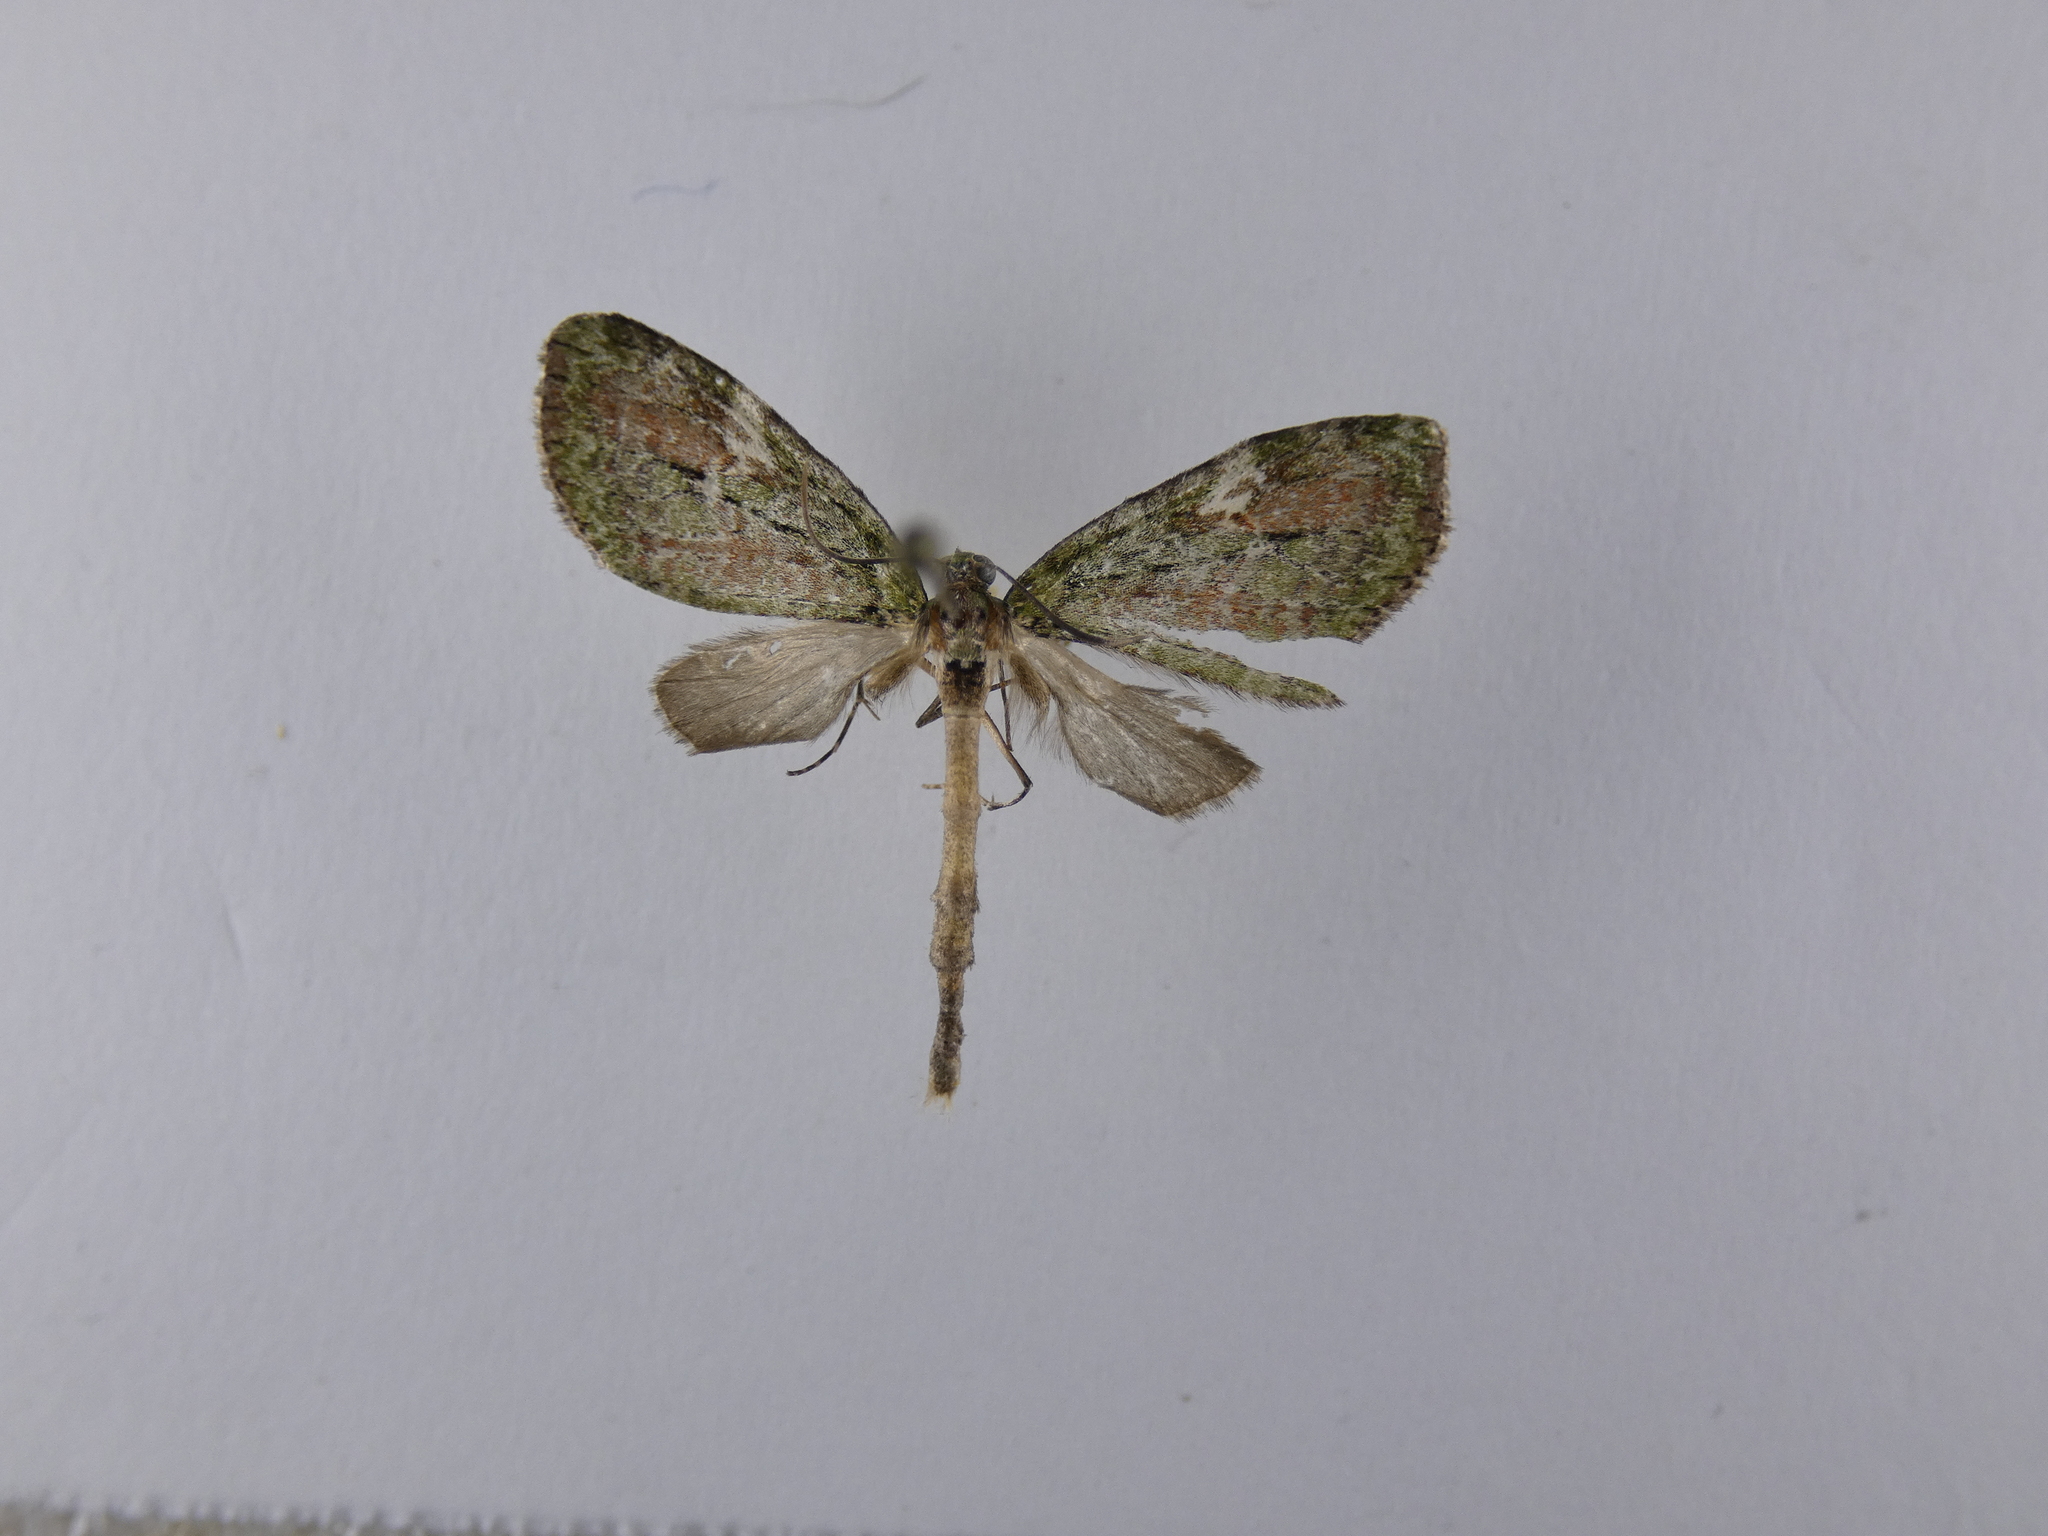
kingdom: Animalia
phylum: Arthropoda
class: Insecta
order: Lepidoptera
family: Geometridae
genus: Tatosoma
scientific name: Tatosoma topea
